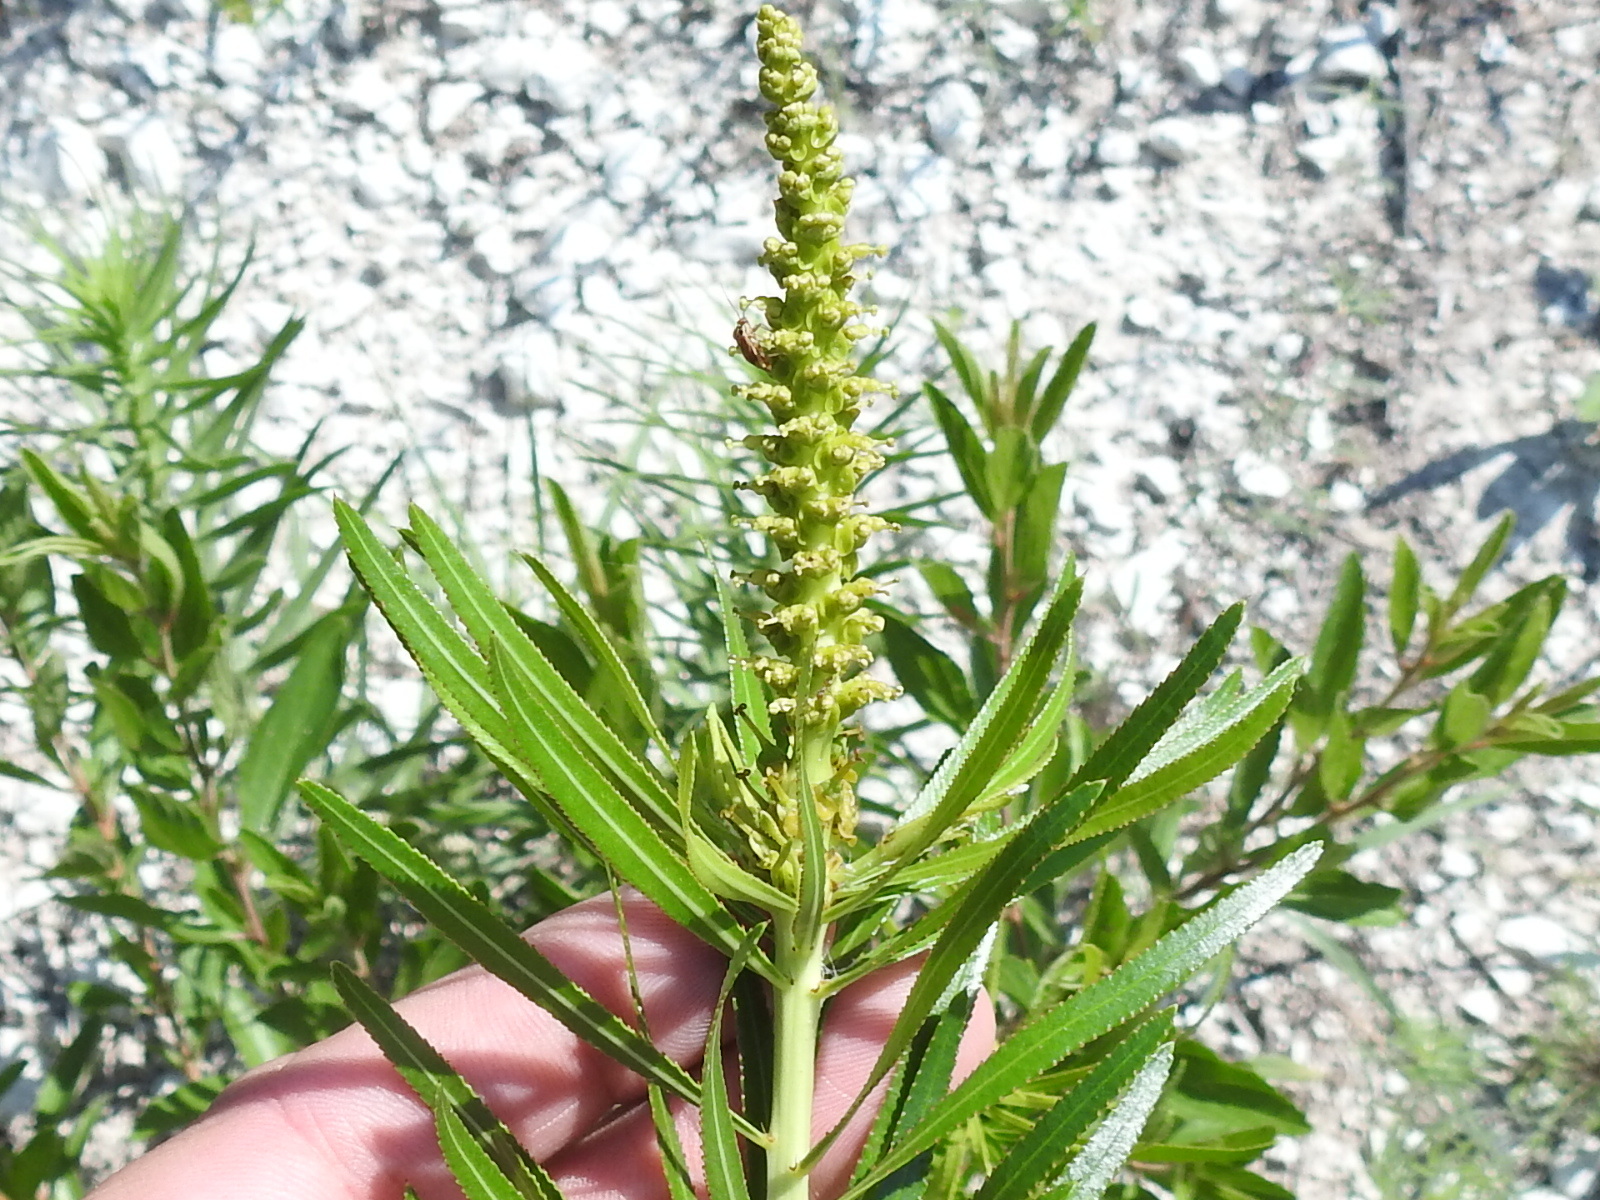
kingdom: Plantae
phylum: Tracheophyta
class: Magnoliopsida
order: Malpighiales
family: Euphorbiaceae
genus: Stillingia
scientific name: Stillingia texana
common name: Texas stillingia
